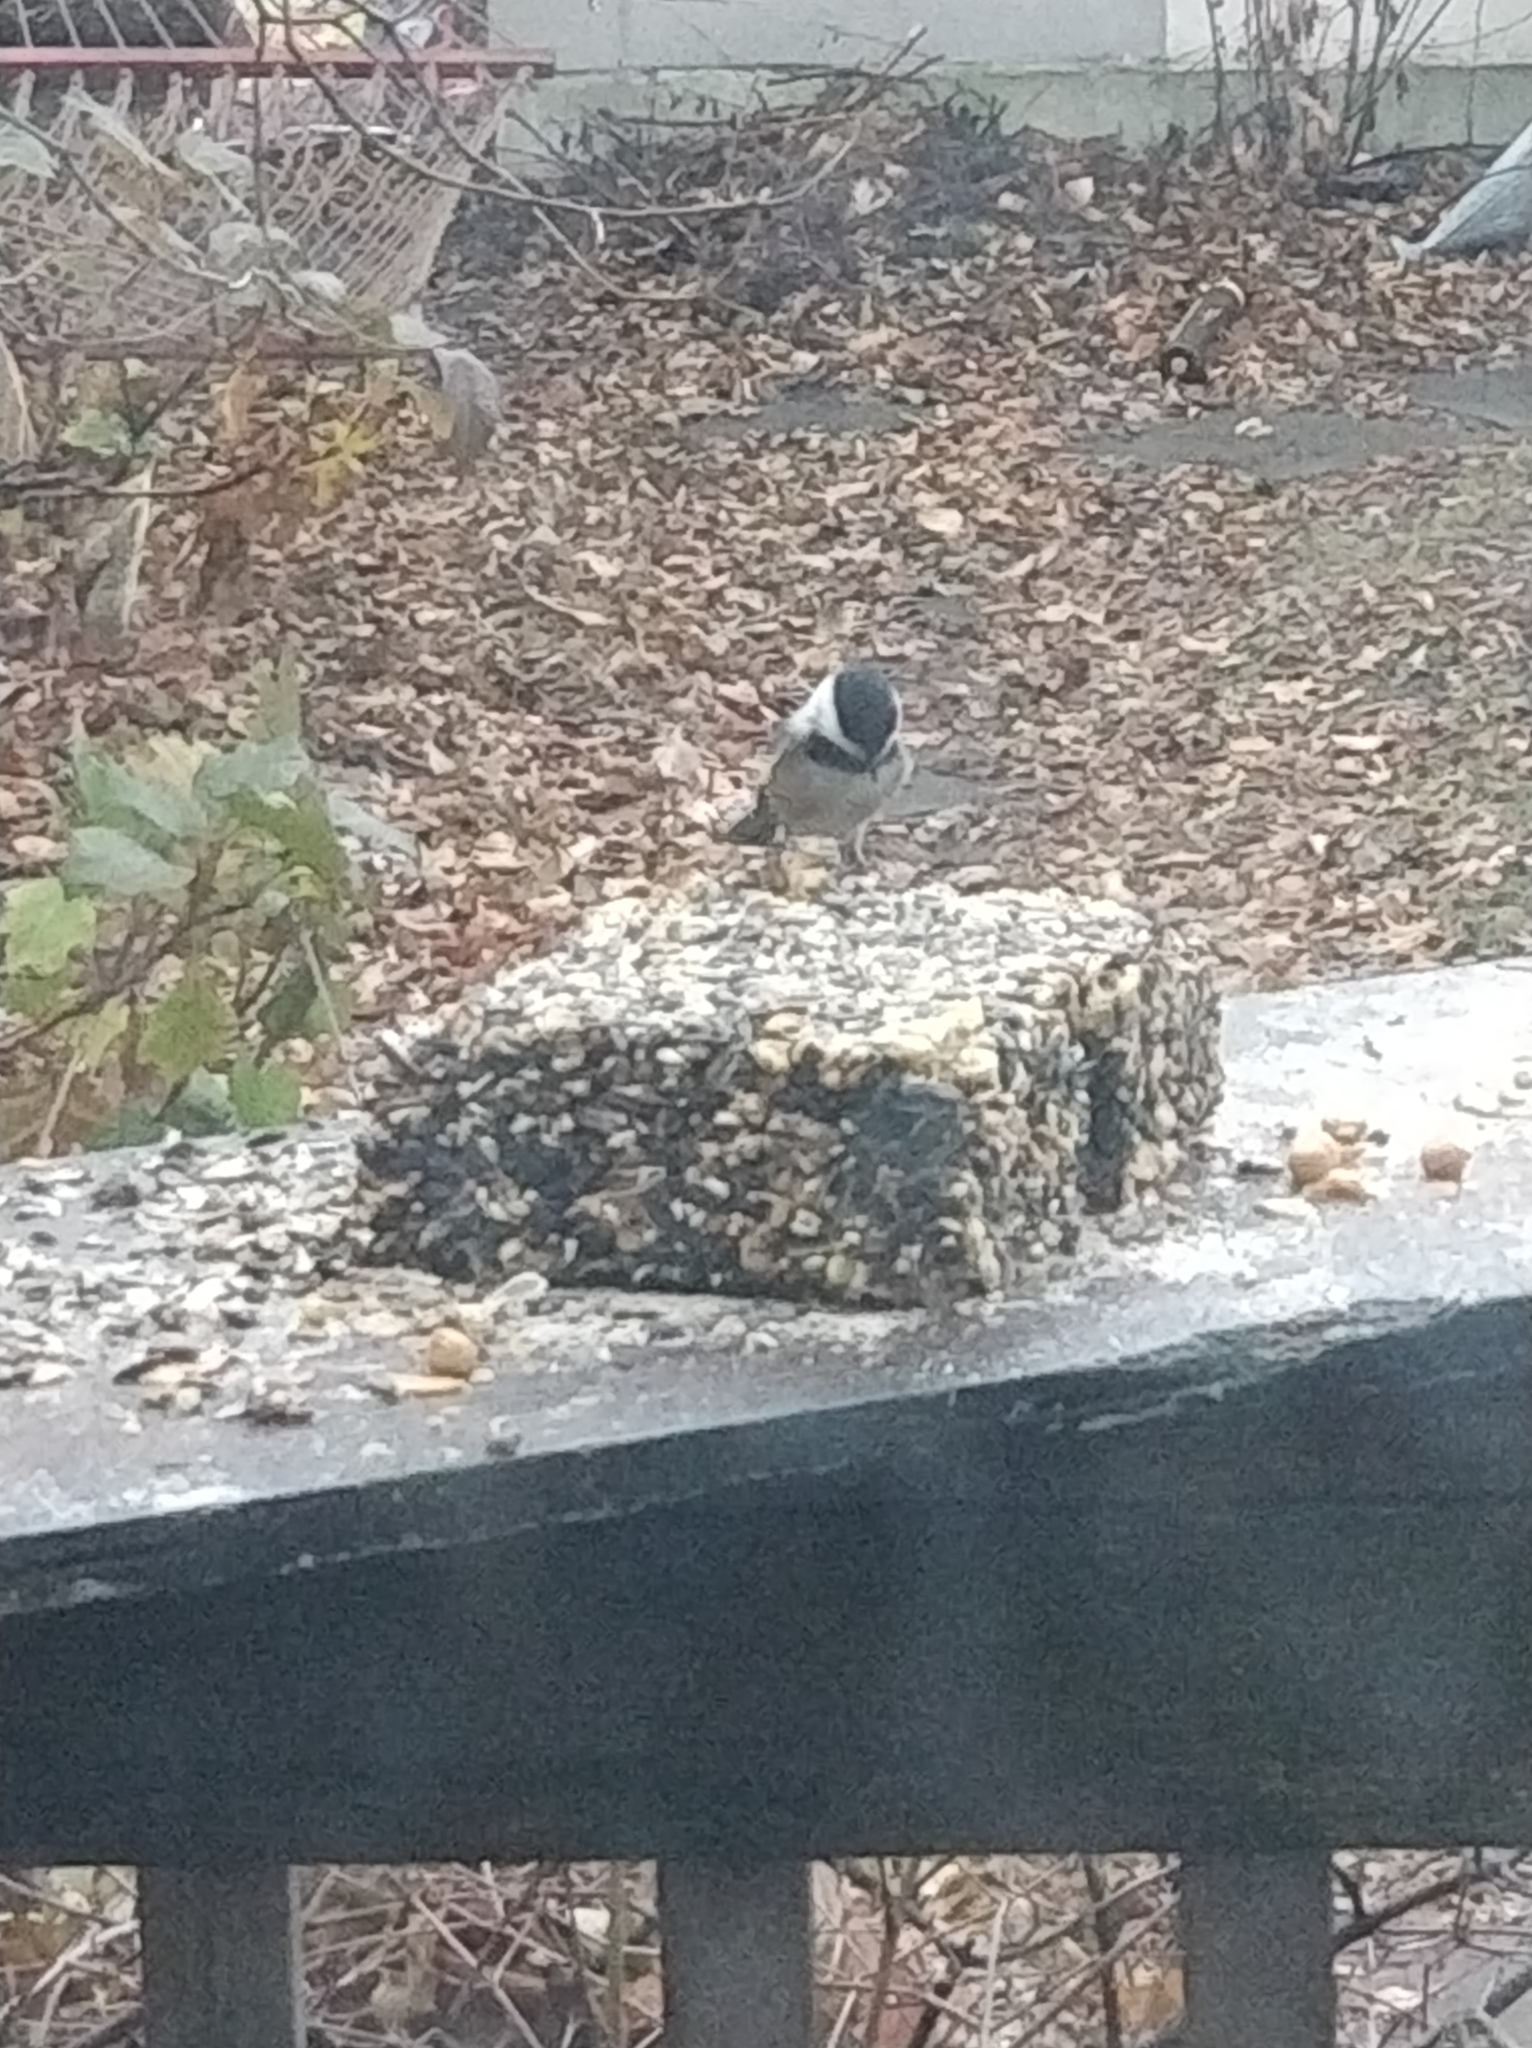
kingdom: Animalia
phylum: Chordata
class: Aves
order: Passeriformes
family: Paridae
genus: Poecile
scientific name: Poecile atricapillus
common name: Black-capped chickadee
